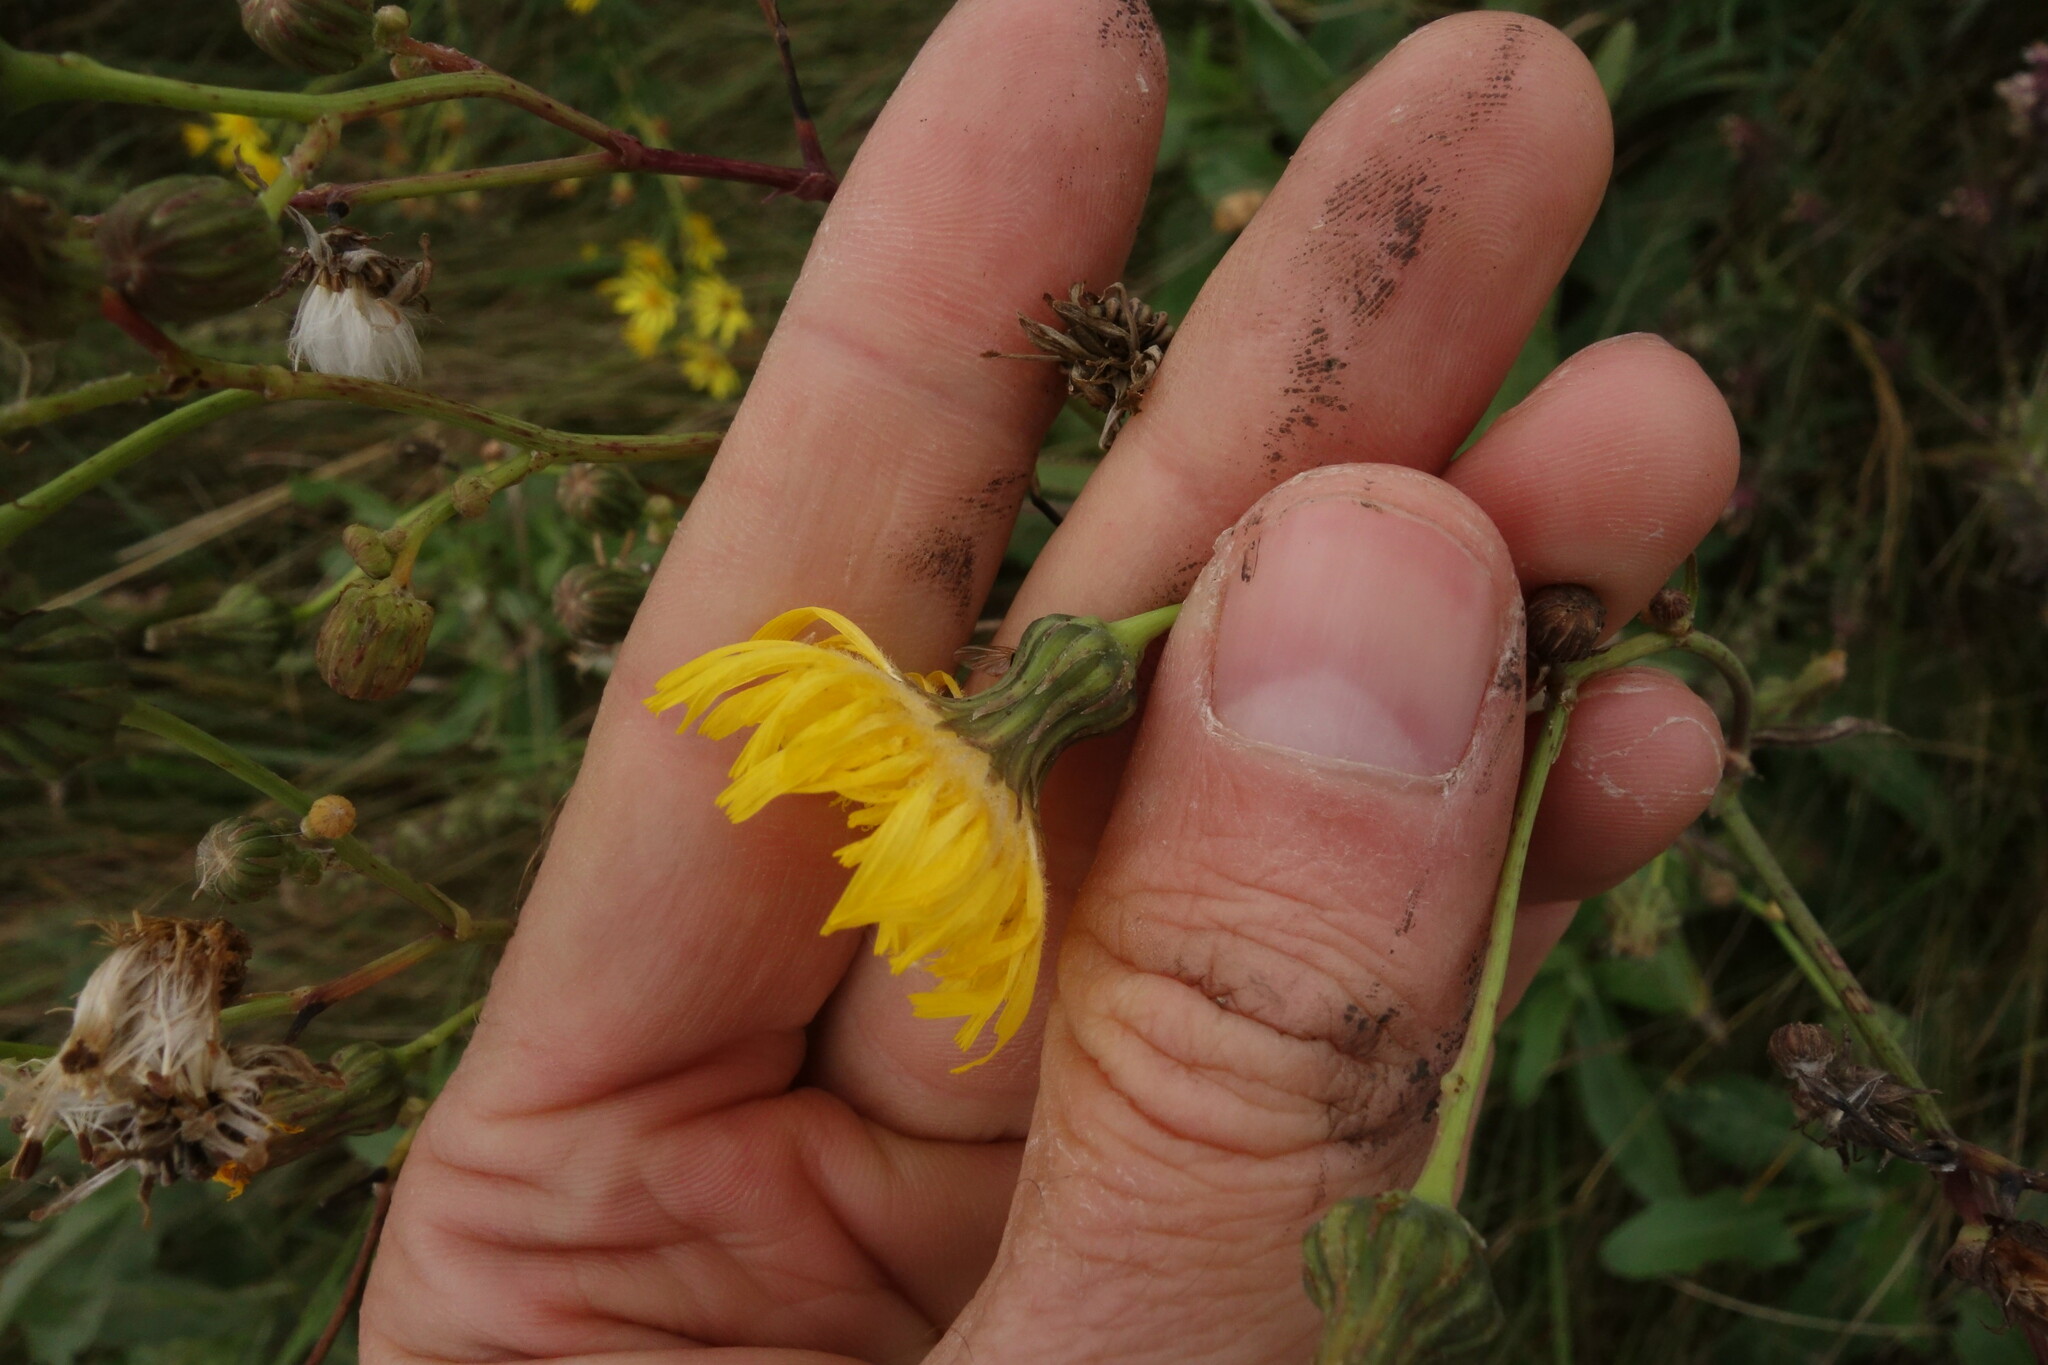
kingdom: Plantae
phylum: Tracheophyta
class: Magnoliopsida
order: Asterales
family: Asteraceae
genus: Sonchus
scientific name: Sonchus arvensis
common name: Perennial sow-thistle
